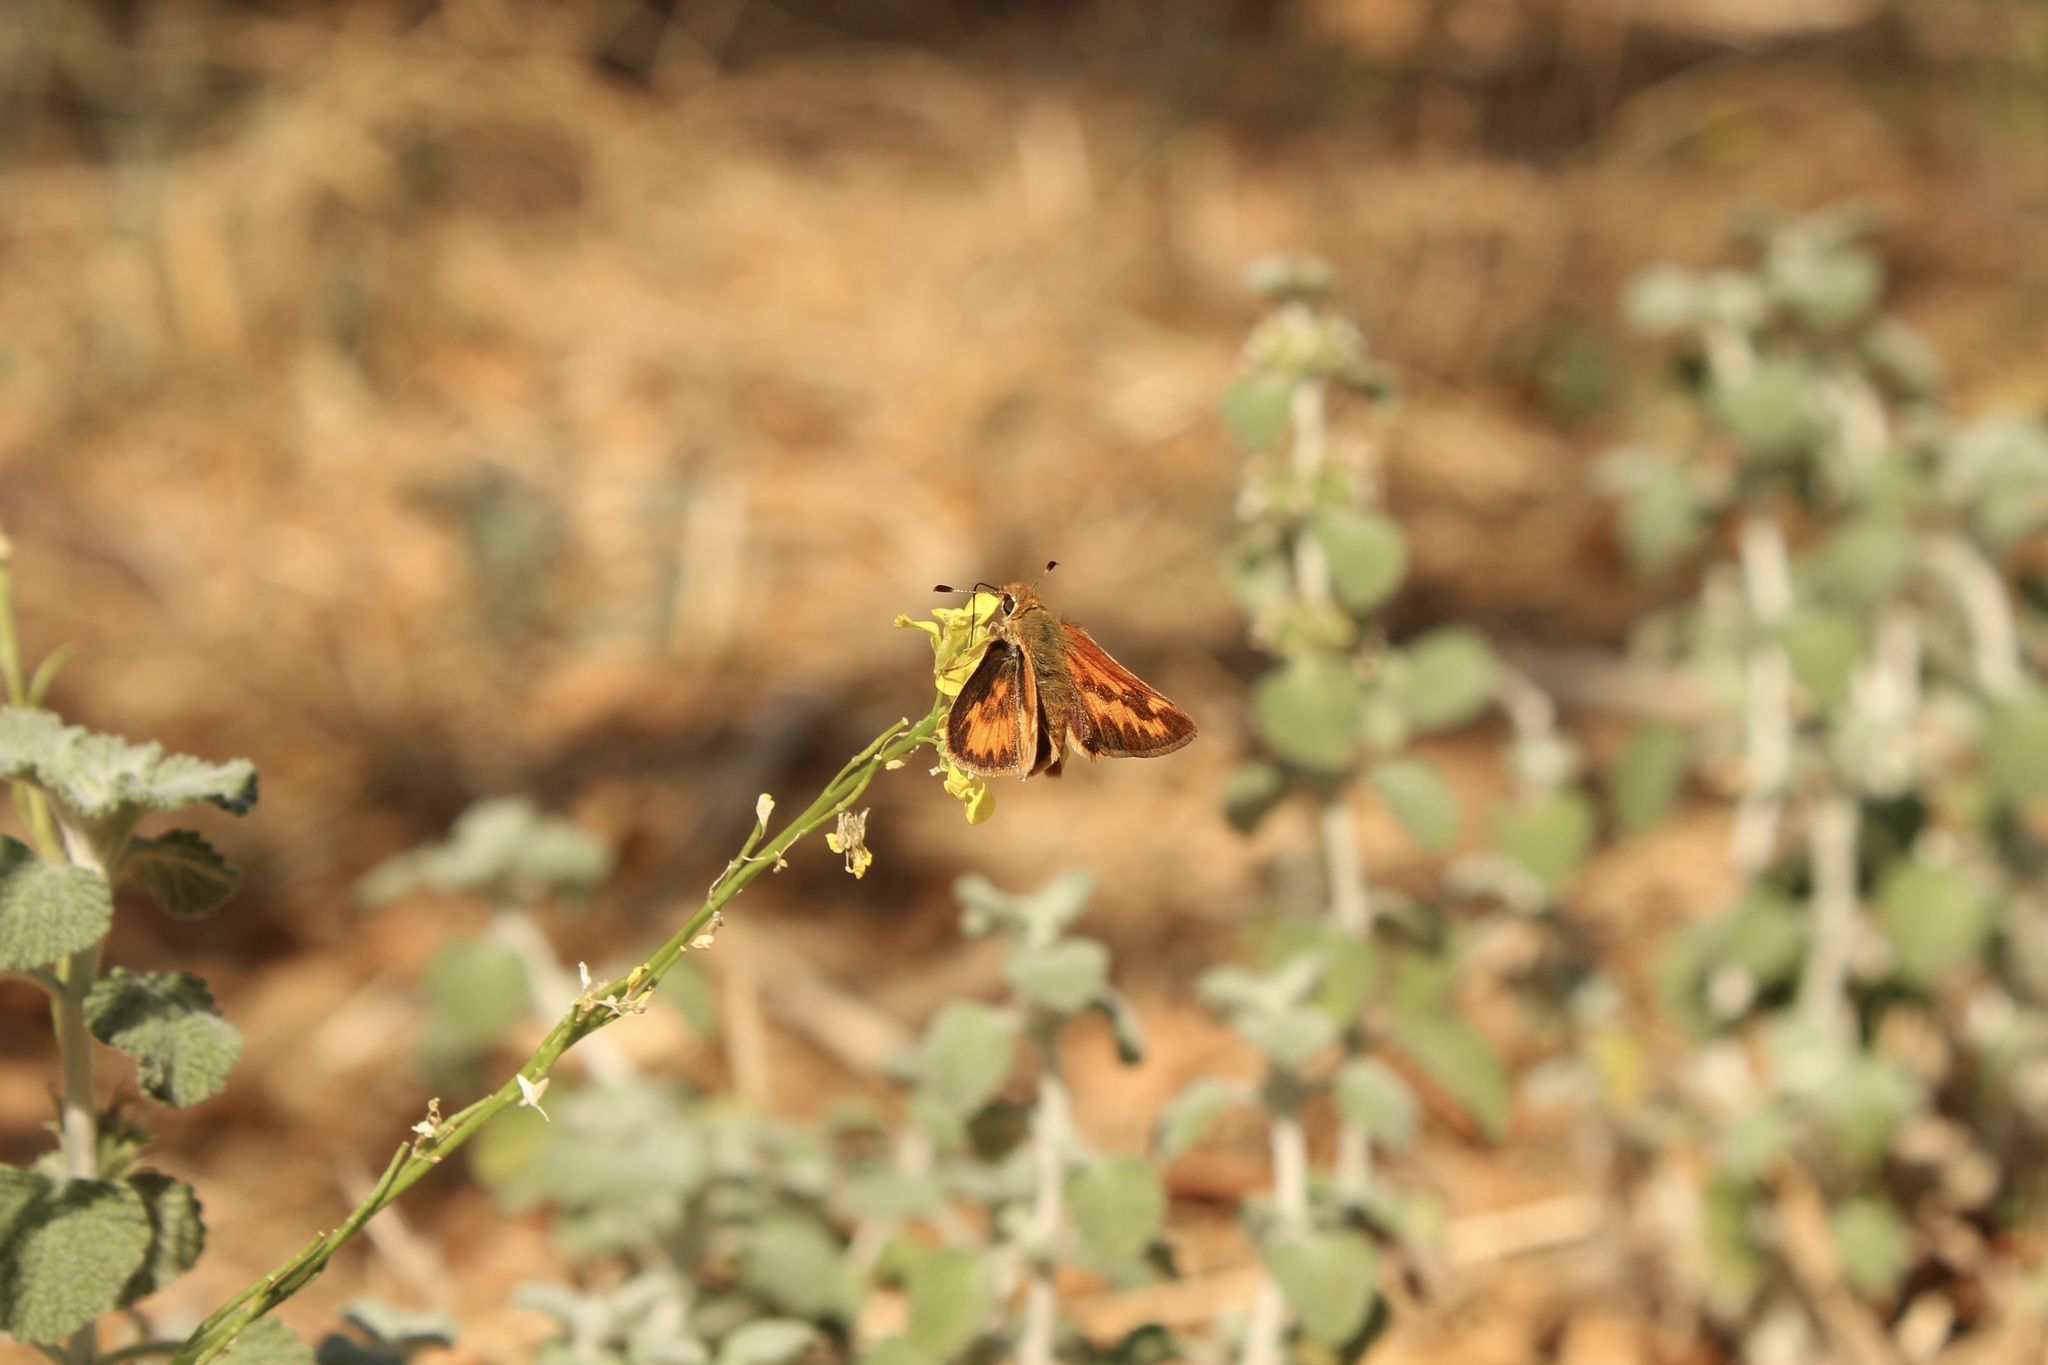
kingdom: Animalia
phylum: Arthropoda
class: Insecta
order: Lepidoptera
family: Hesperiidae
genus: Ochlodes
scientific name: Ochlodes sylvanoides
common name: Woodland skipper
